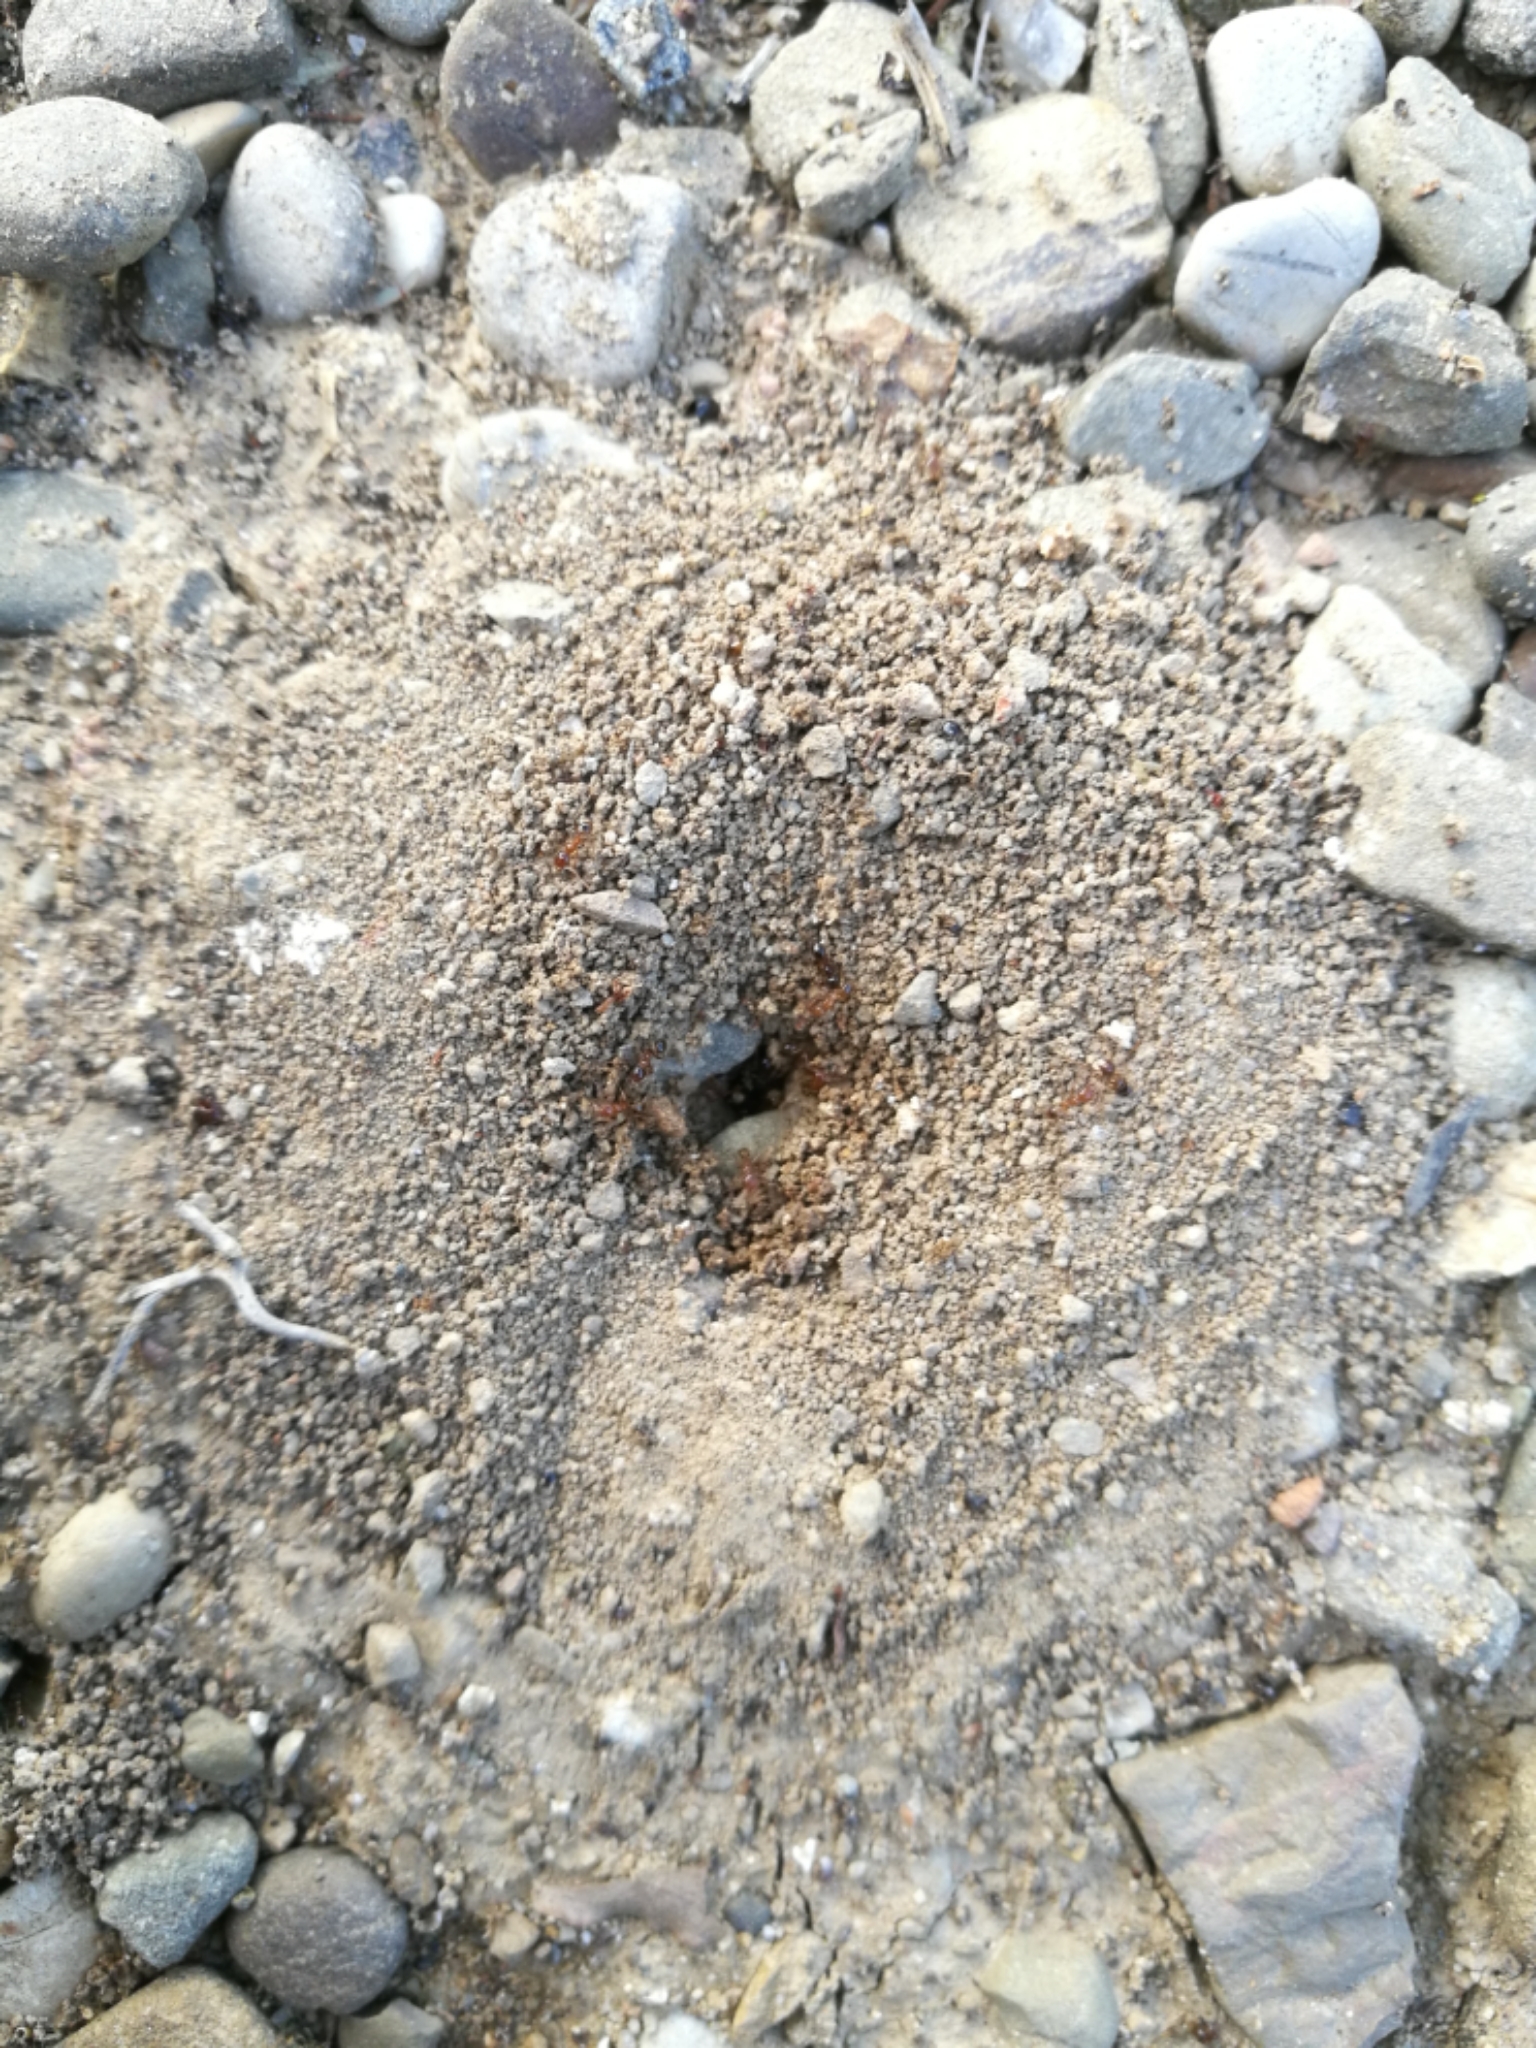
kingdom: Animalia
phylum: Arthropoda
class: Insecta
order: Hymenoptera
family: Formicidae
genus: Pheidole
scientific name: Pheidole pallidula
